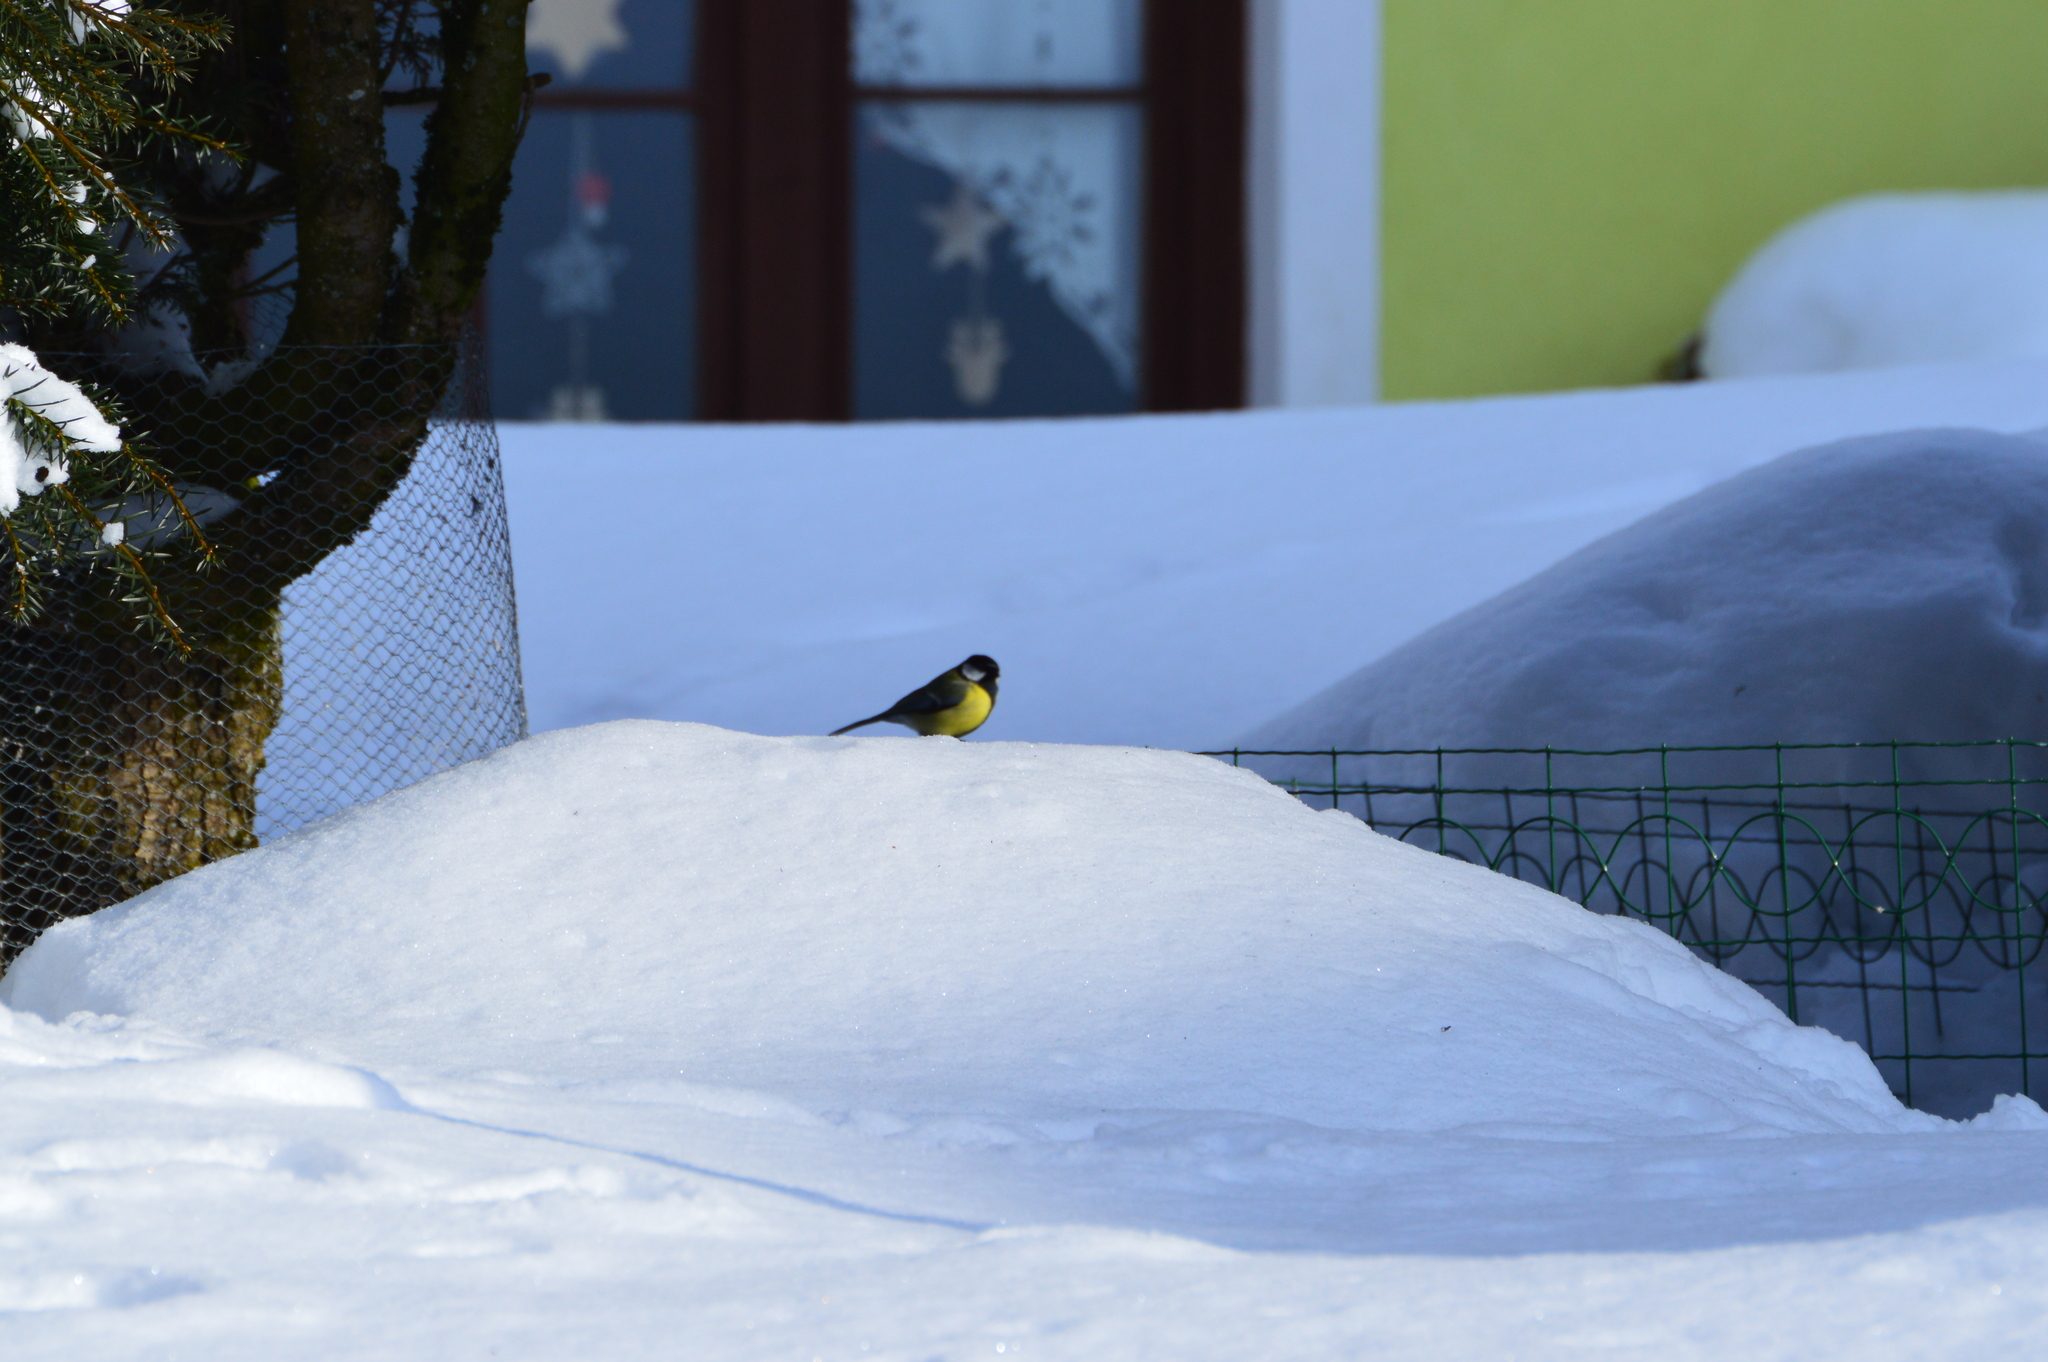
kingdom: Animalia
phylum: Chordata
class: Aves
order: Passeriformes
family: Paridae
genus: Parus
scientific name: Parus major
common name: Great tit
